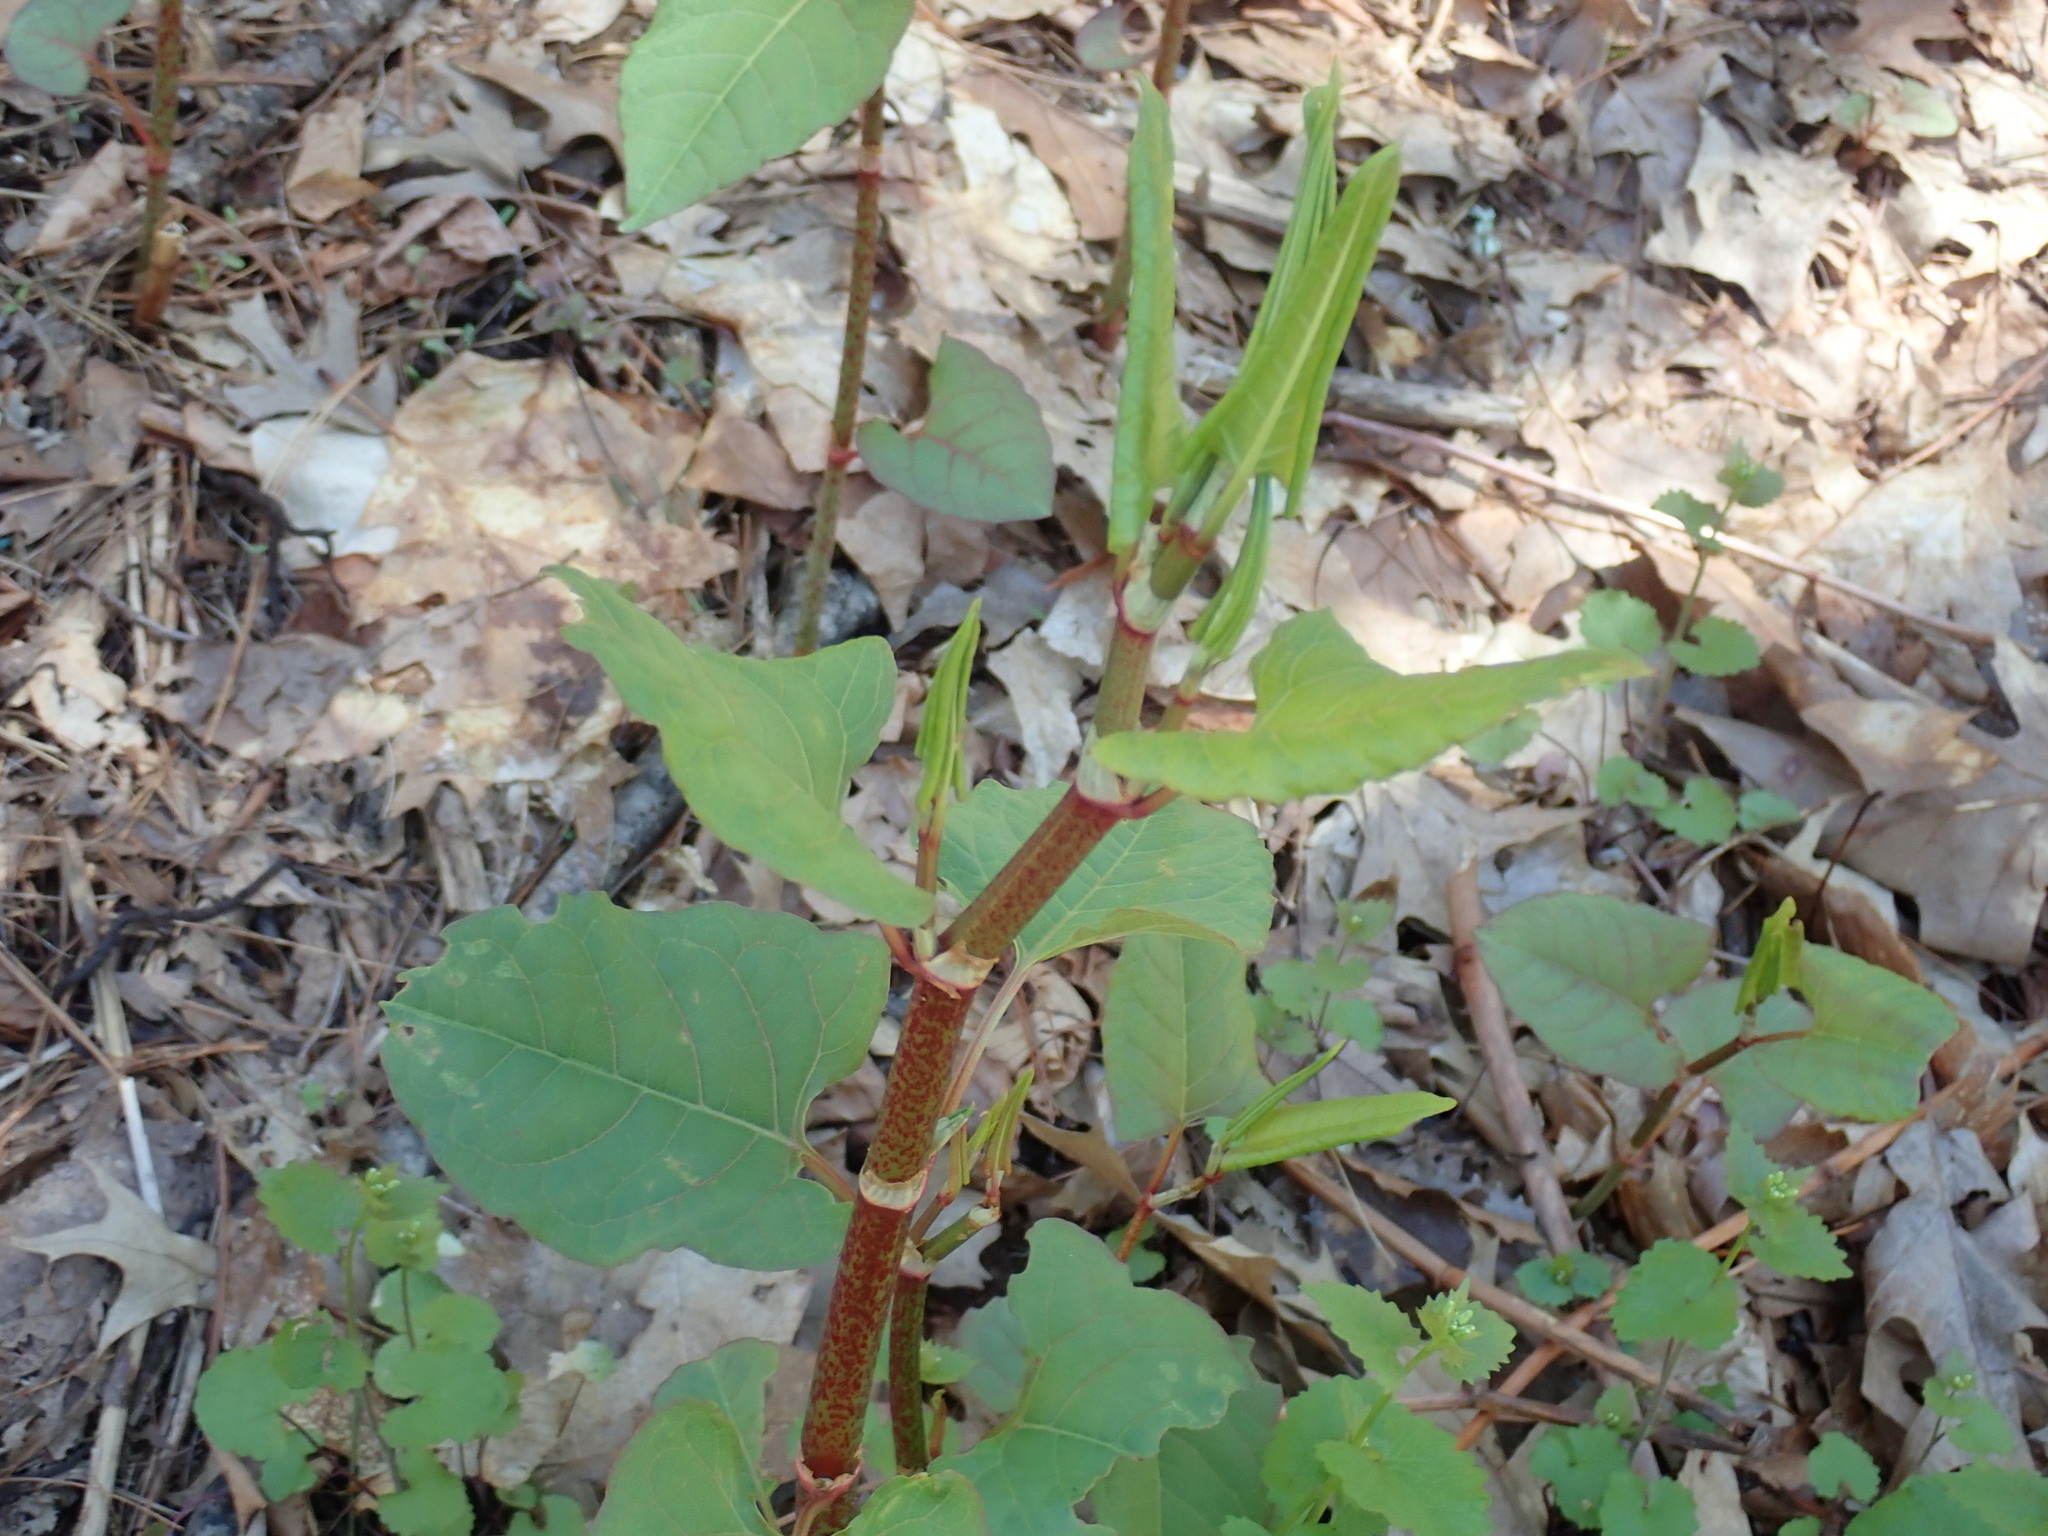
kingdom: Plantae
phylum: Tracheophyta
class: Magnoliopsida
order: Caryophyllales
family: Polygonaceae
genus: Reynoutria
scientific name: Reynoutria japonica
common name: Japanese knotweed
